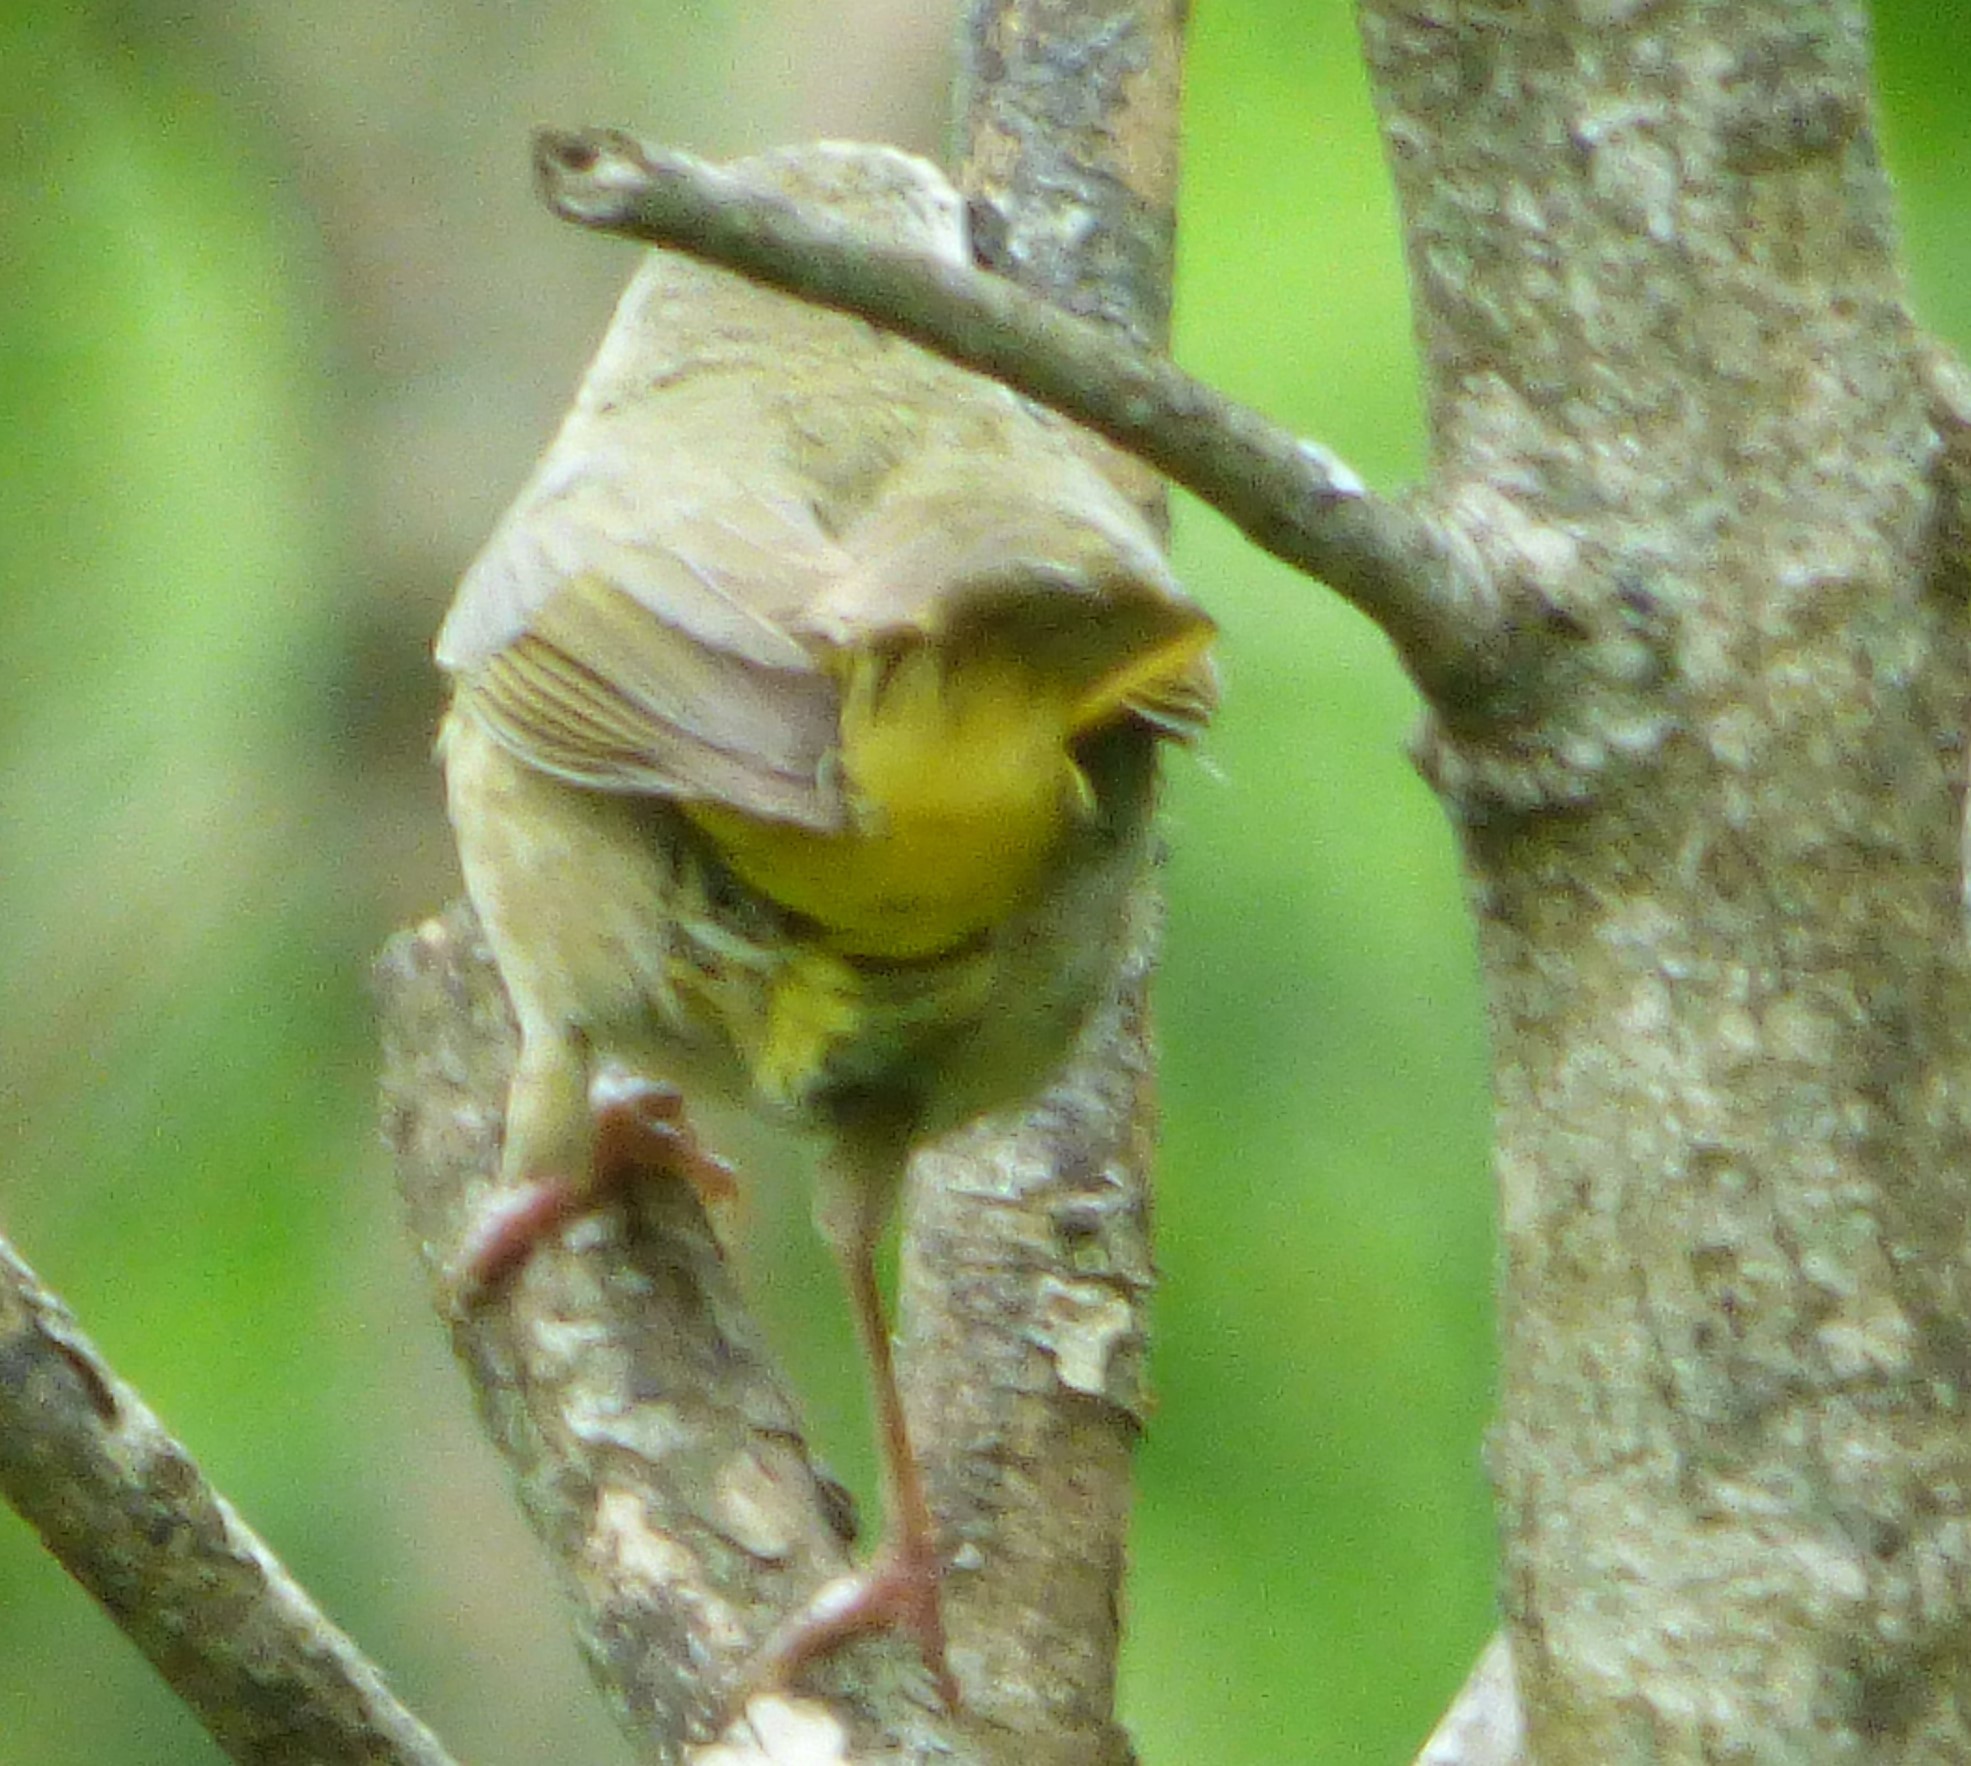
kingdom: Animalia
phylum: Chordata
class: Aves
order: Passeriformes
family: Parulidae
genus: Geothlypis
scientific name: Geothlypis trichas
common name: Common yellowthroat
